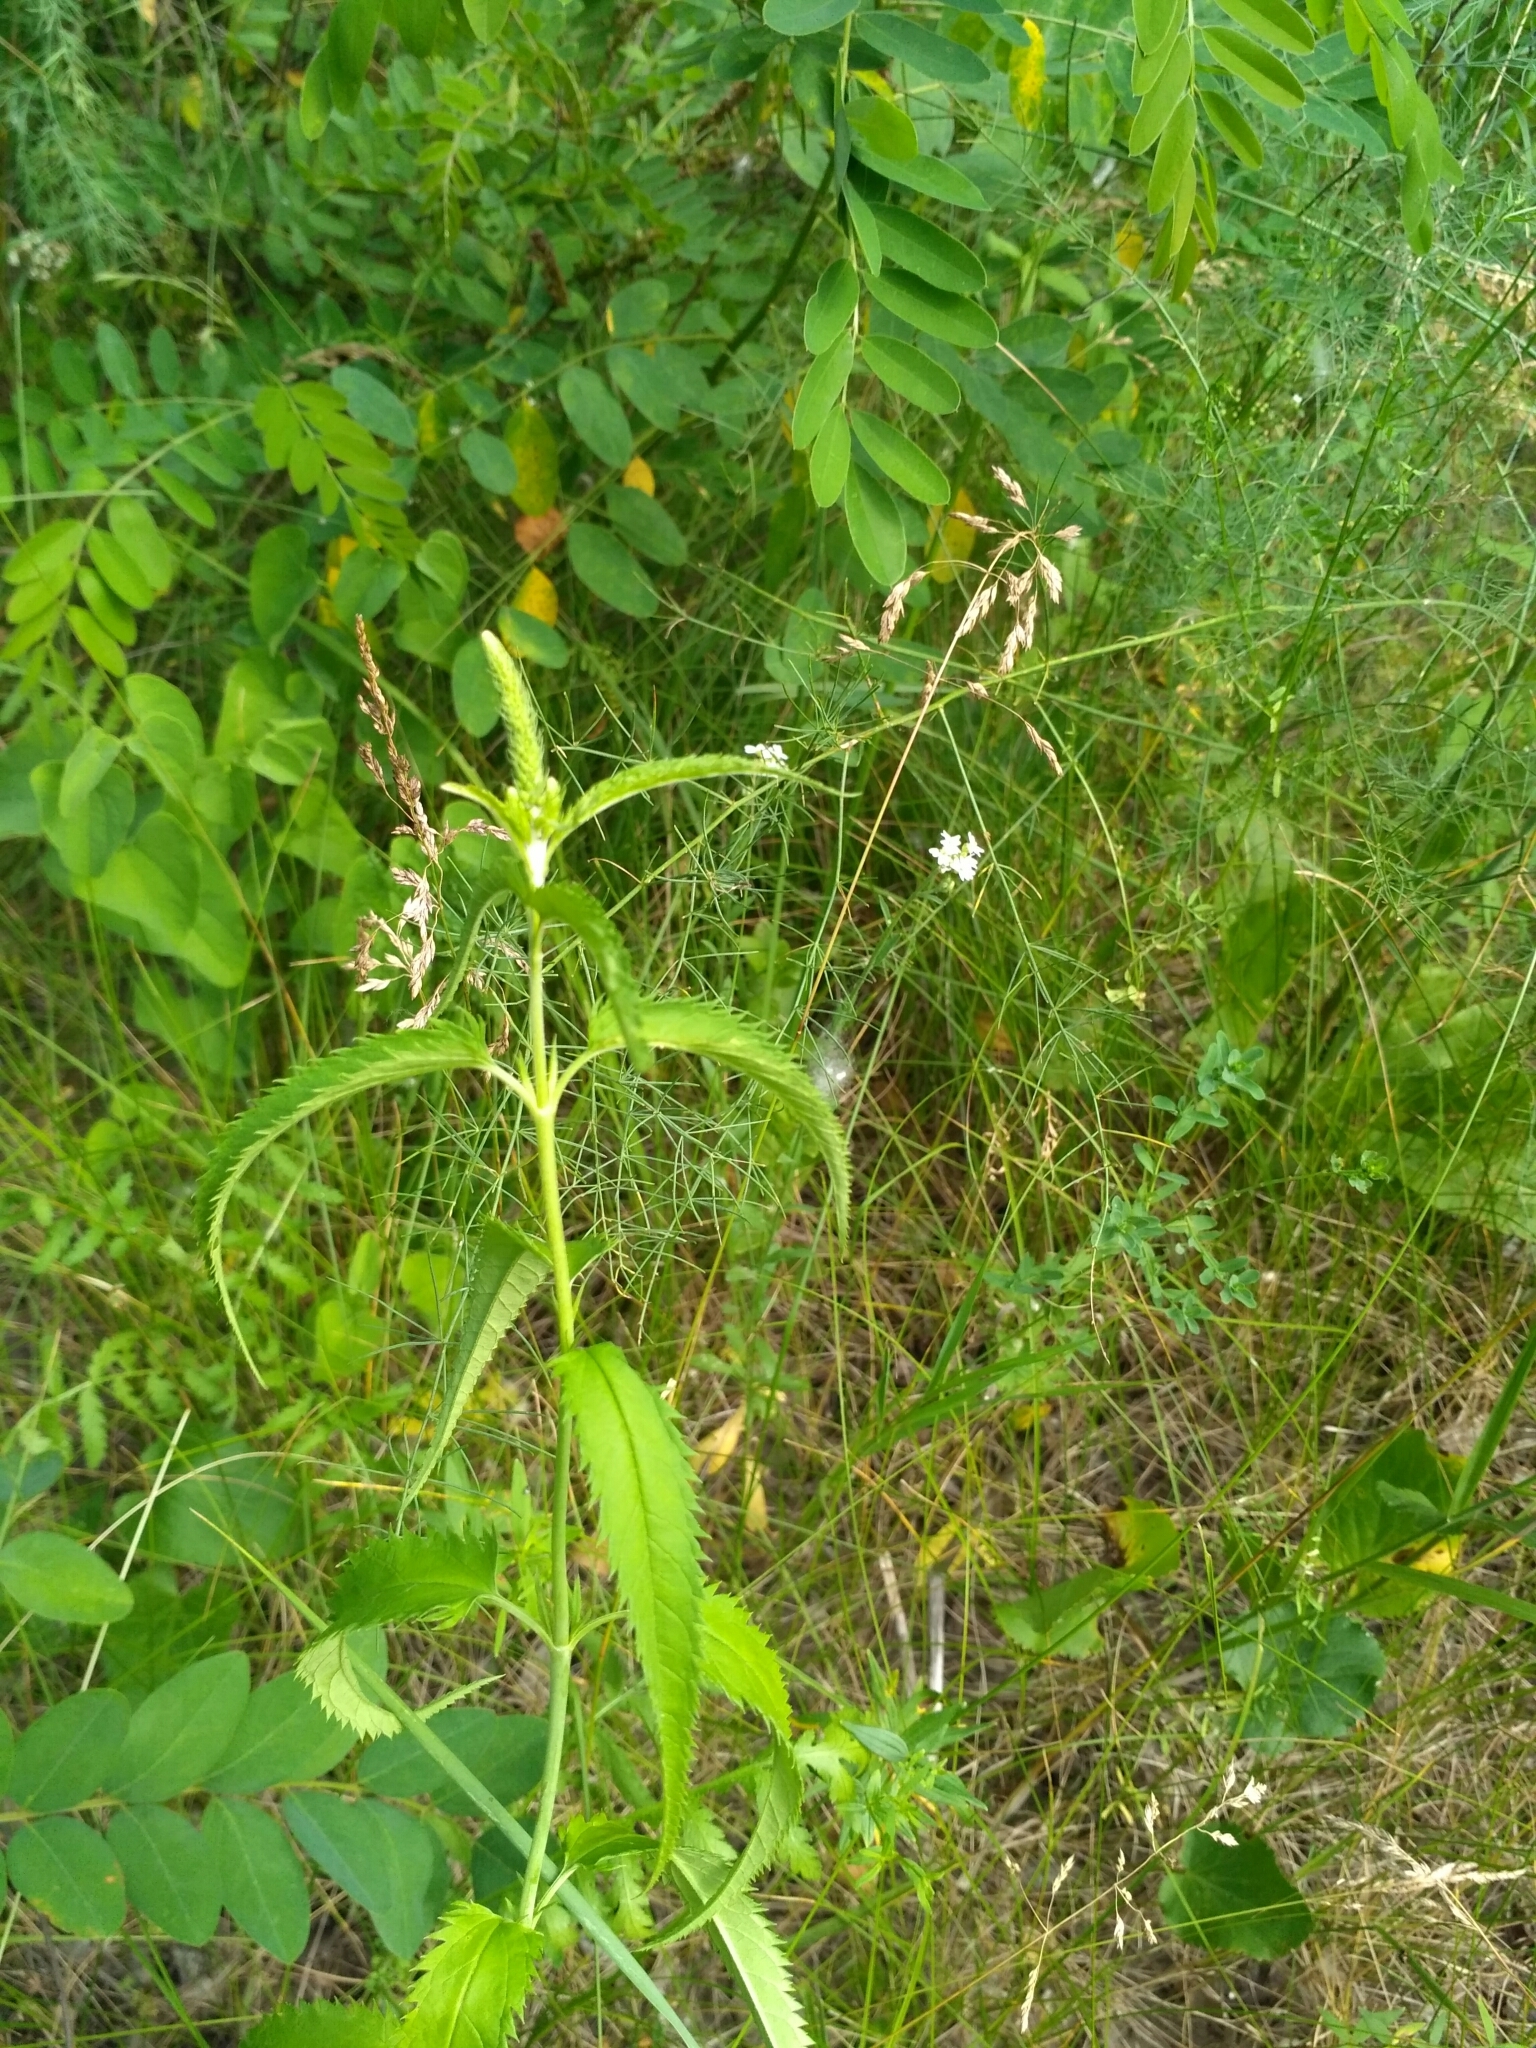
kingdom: Plantae
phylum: Tracheophyta
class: Magnoliopsida
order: Lamiales
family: Plantaginaceae
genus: Veronica
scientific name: Veronica longifolia
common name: Garden speedwell
